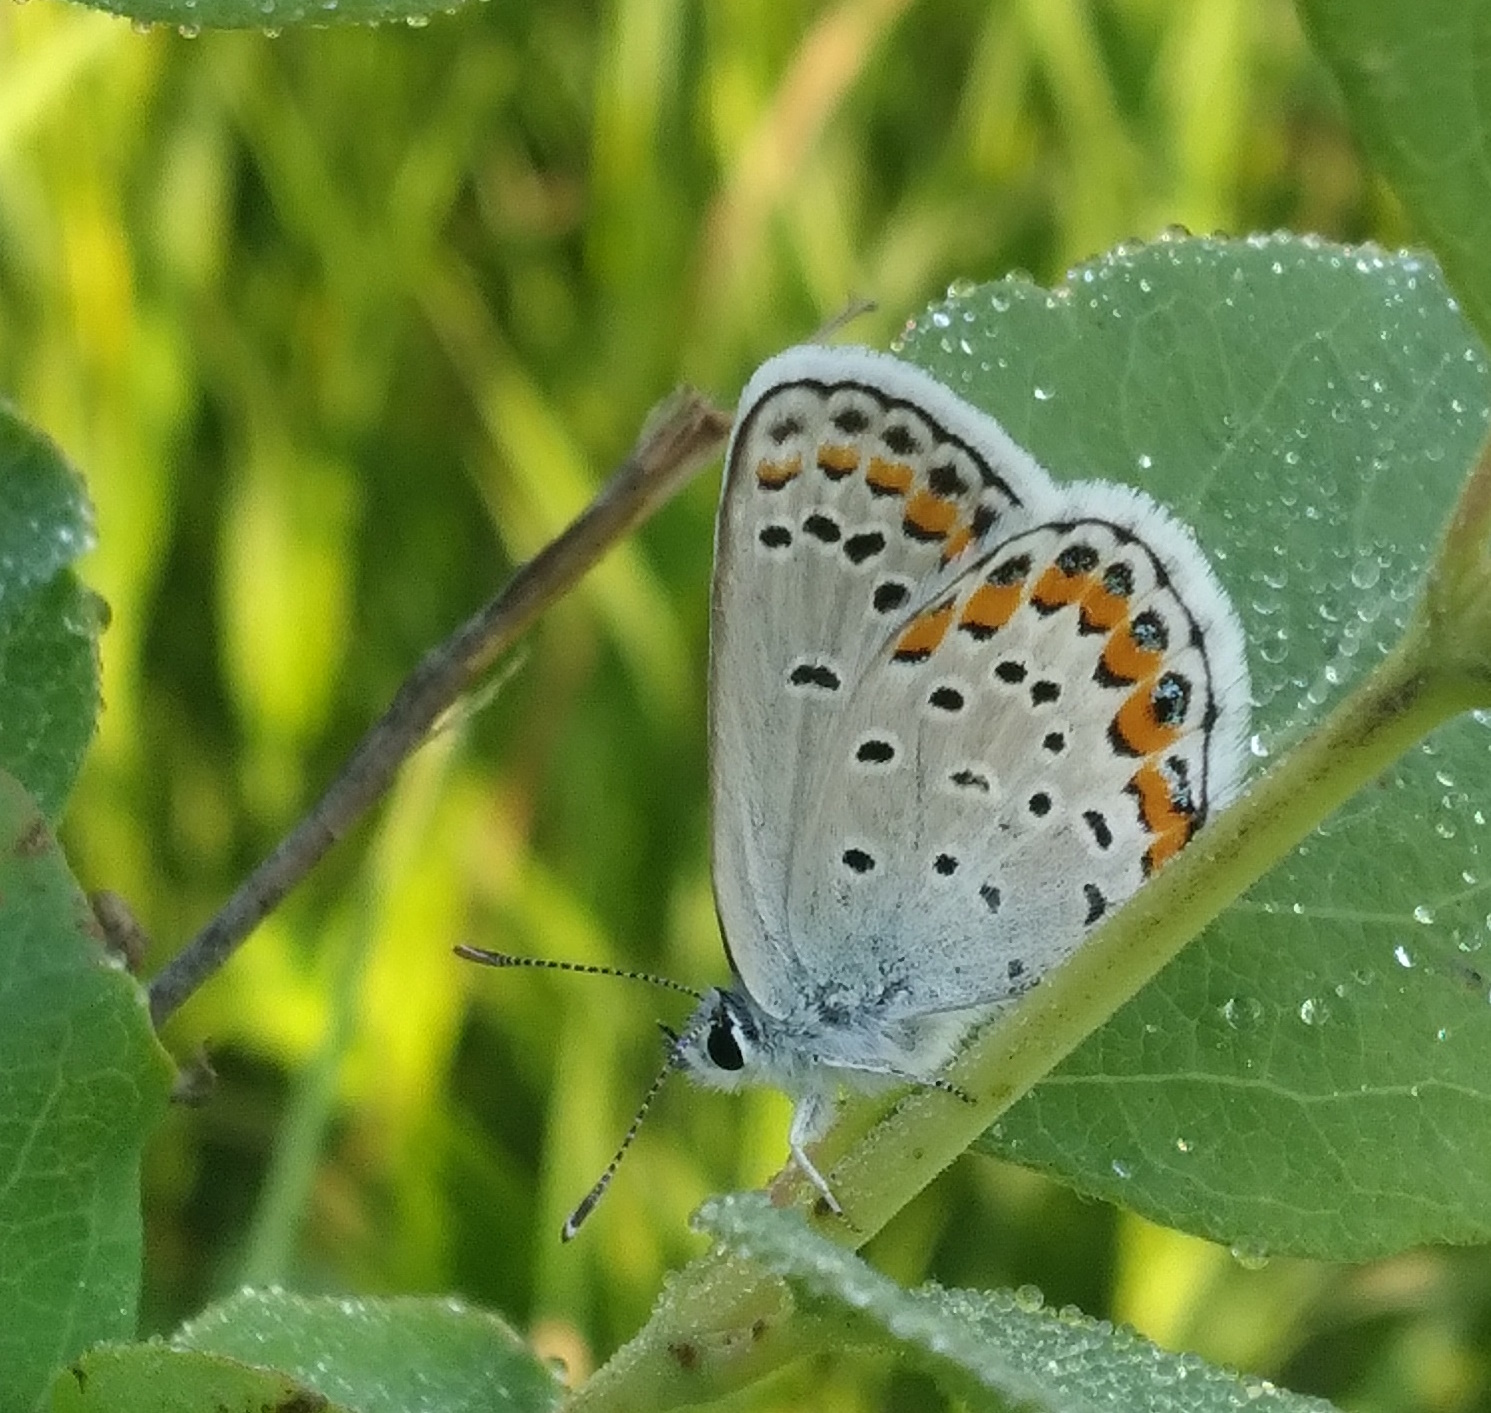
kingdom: Animalia
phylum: Arthropoda
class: Insecta
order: Lepidoptera
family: Lycaenidae
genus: Lycaeides
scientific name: Lycaeides melissa
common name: Melissa blue
